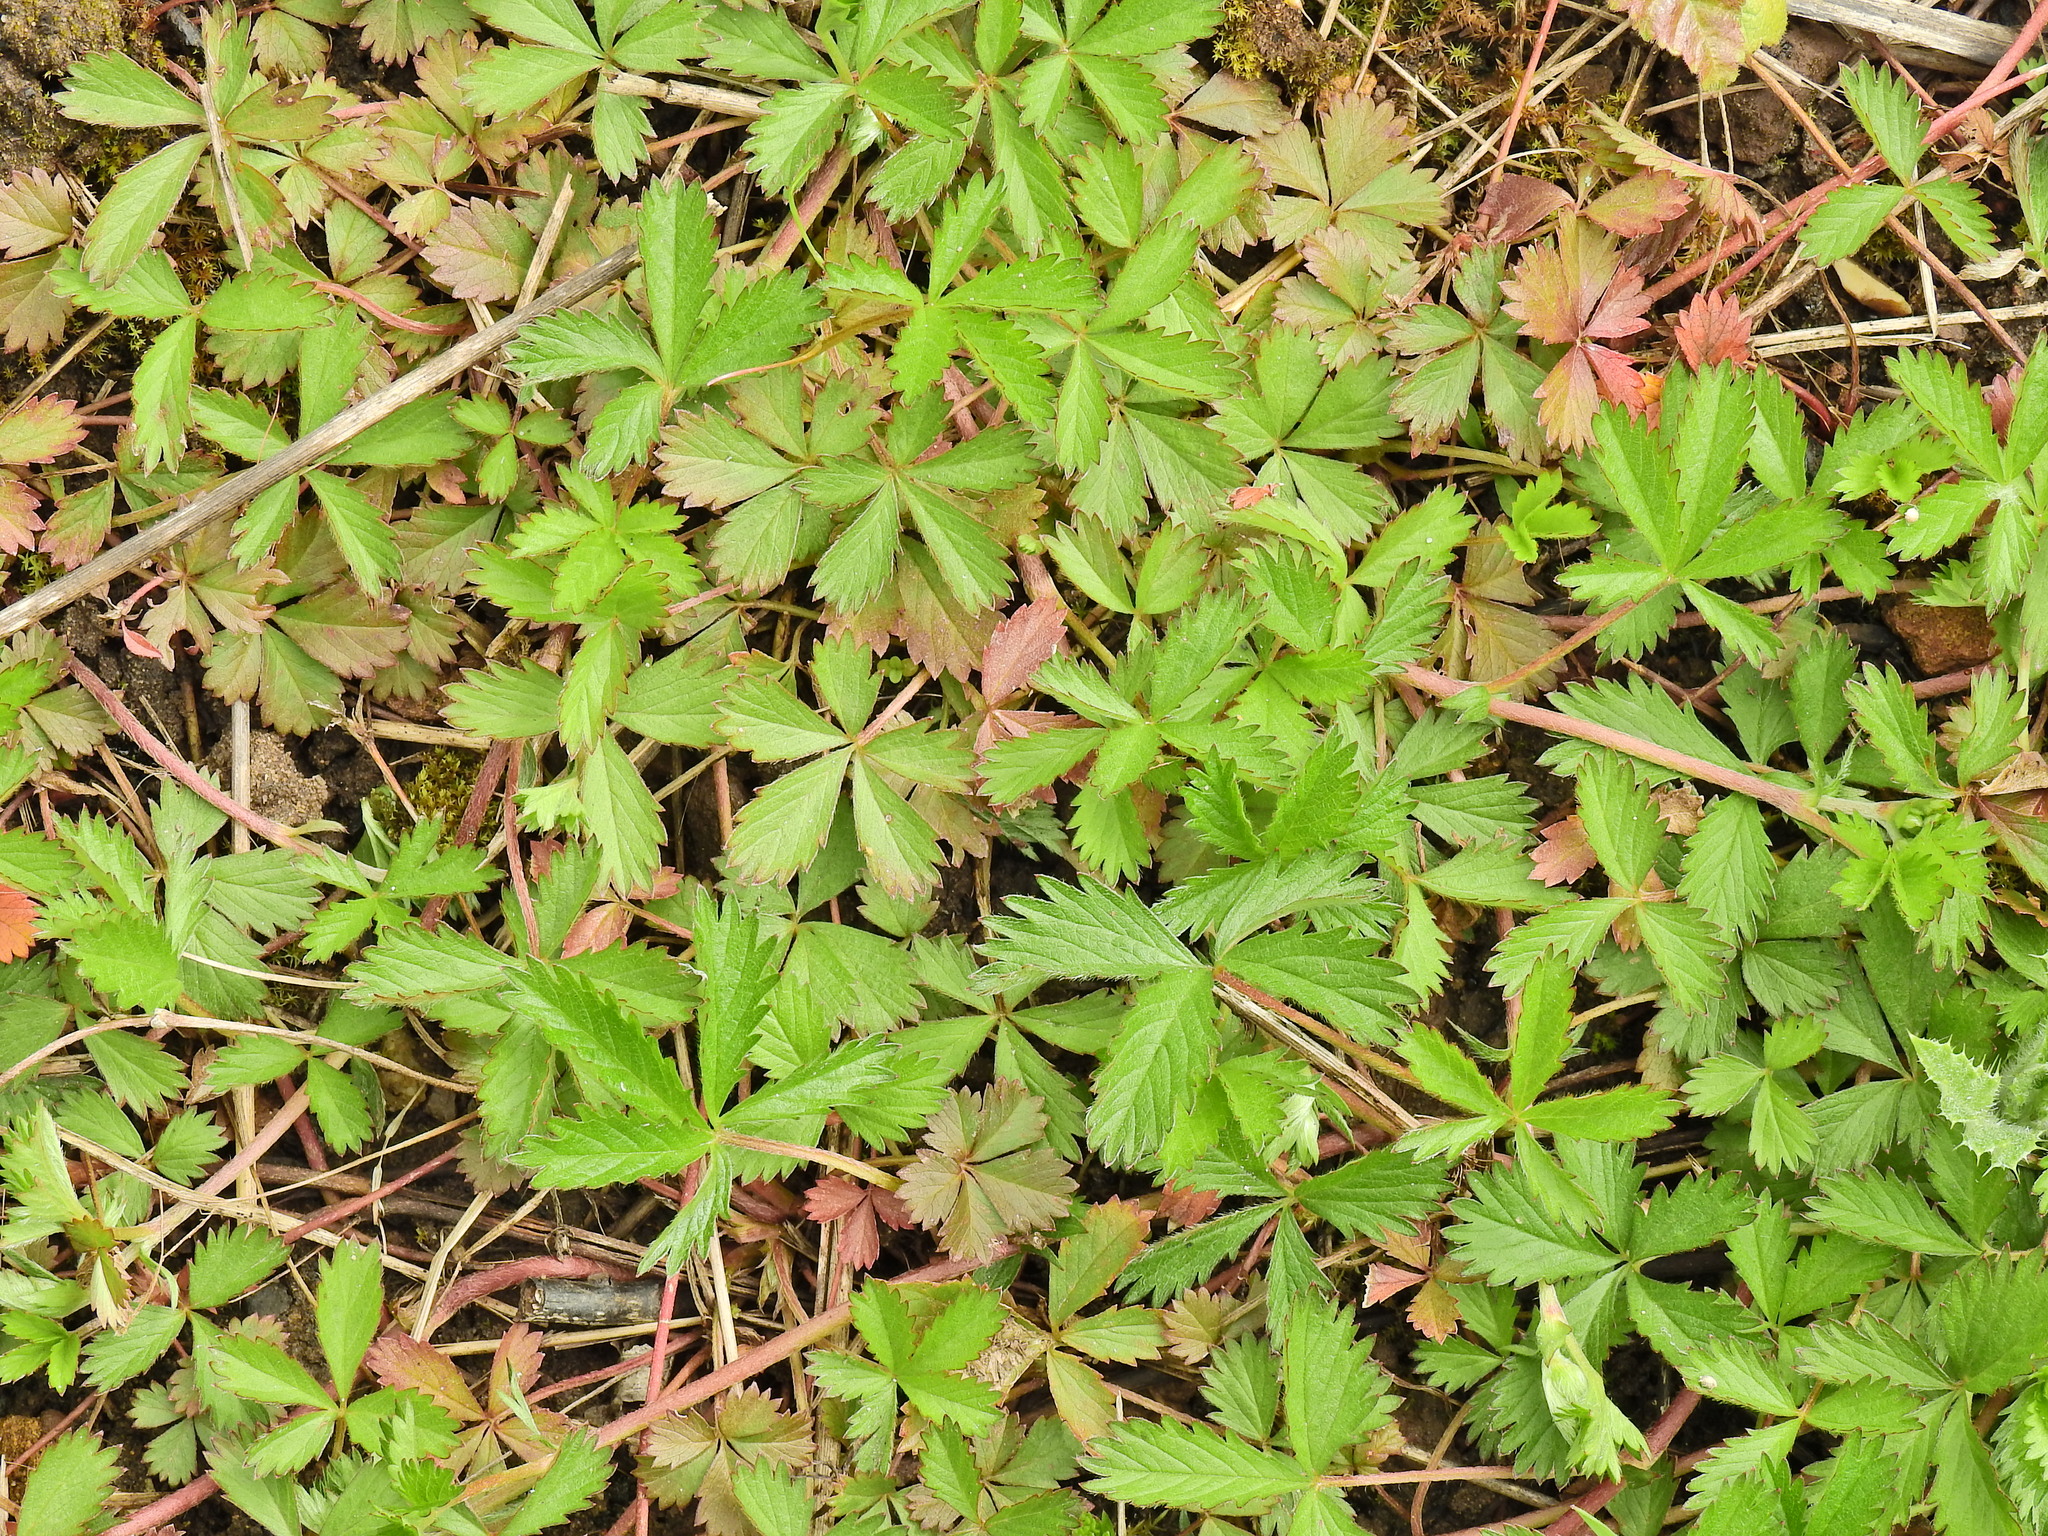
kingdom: Plantae
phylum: Tracheophyta
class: Magnoliopsida
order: Rosales
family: Rosaceae
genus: Potentilla
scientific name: Potentilla reptans
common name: Creeping cinquefoil
